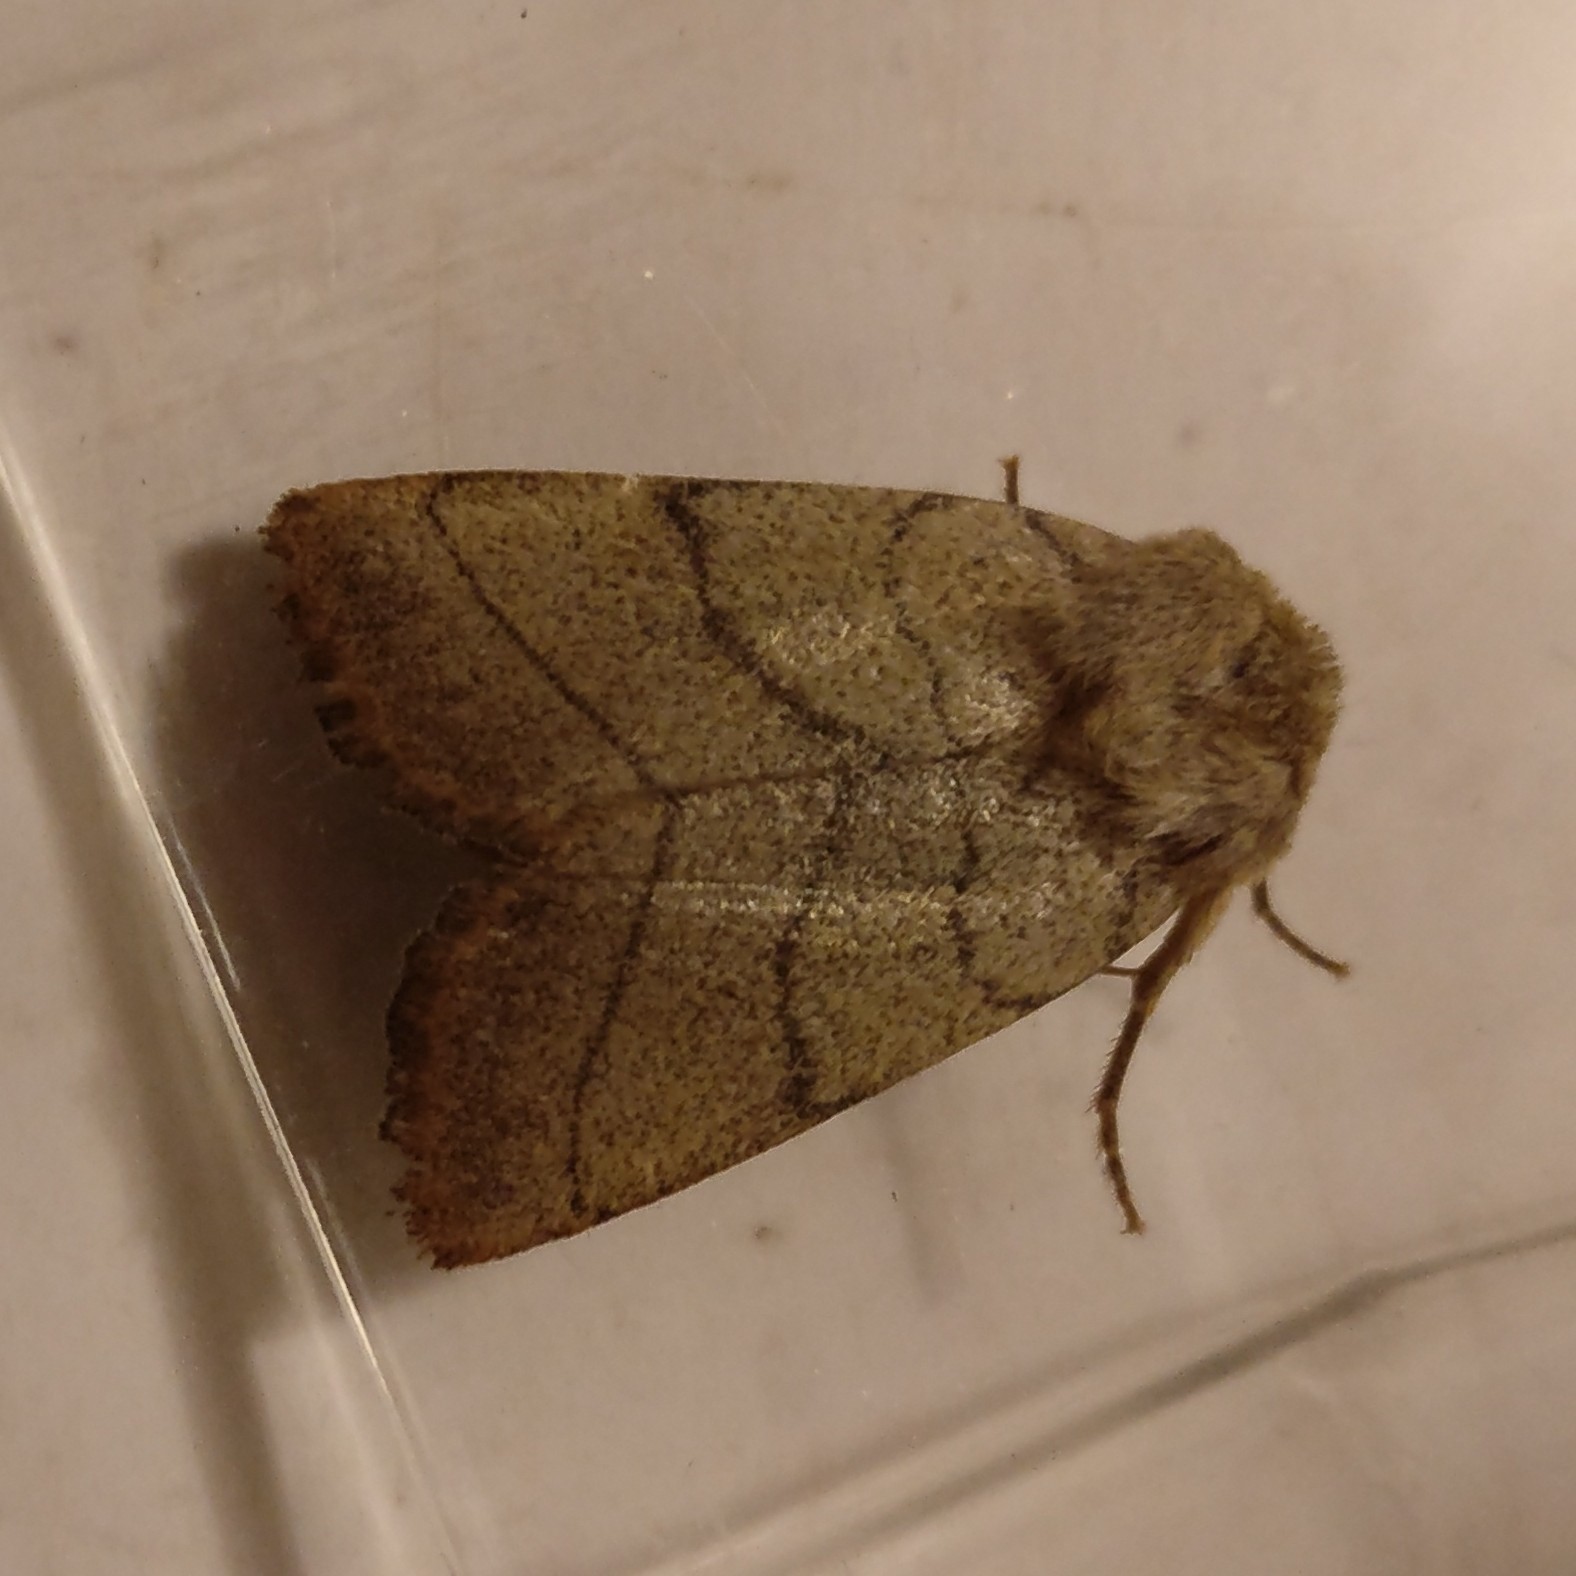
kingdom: Animalia
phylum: Arthropoda
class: Insecta
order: Lepidoptera
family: Noctuidae
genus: Charanyca
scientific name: Charanyca trigrammica
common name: Treble lines
